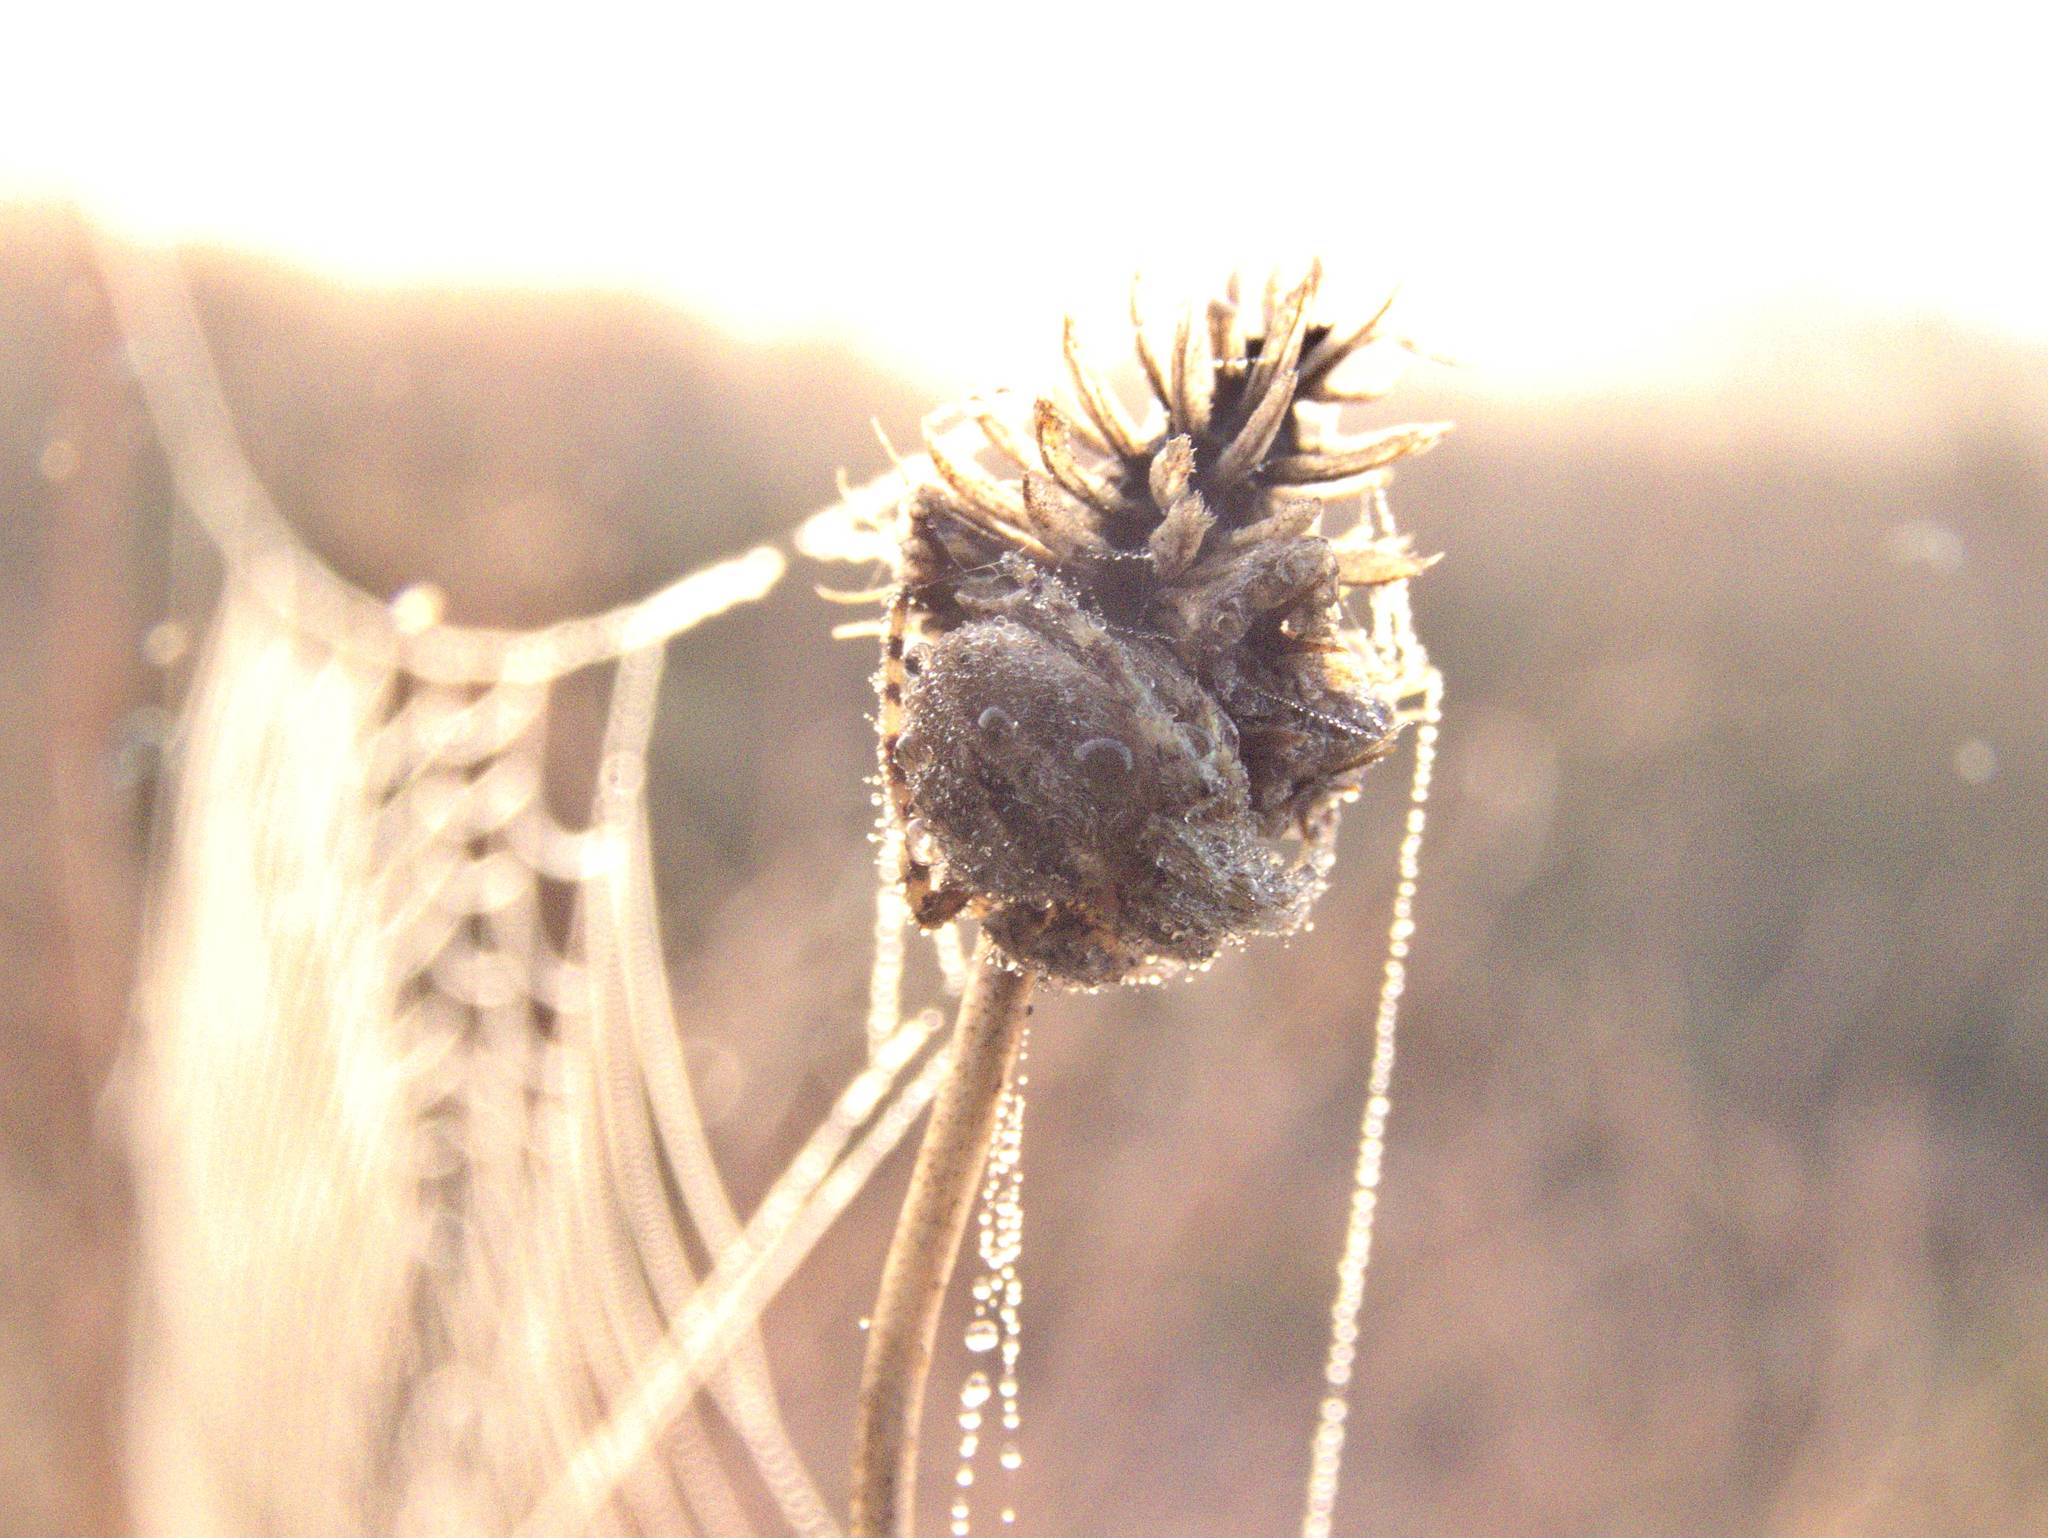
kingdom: Animalia
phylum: Arthropoda
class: Arachnida
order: Araneae
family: Araneidae
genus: Agalenatea
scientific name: Agalenatea redii
